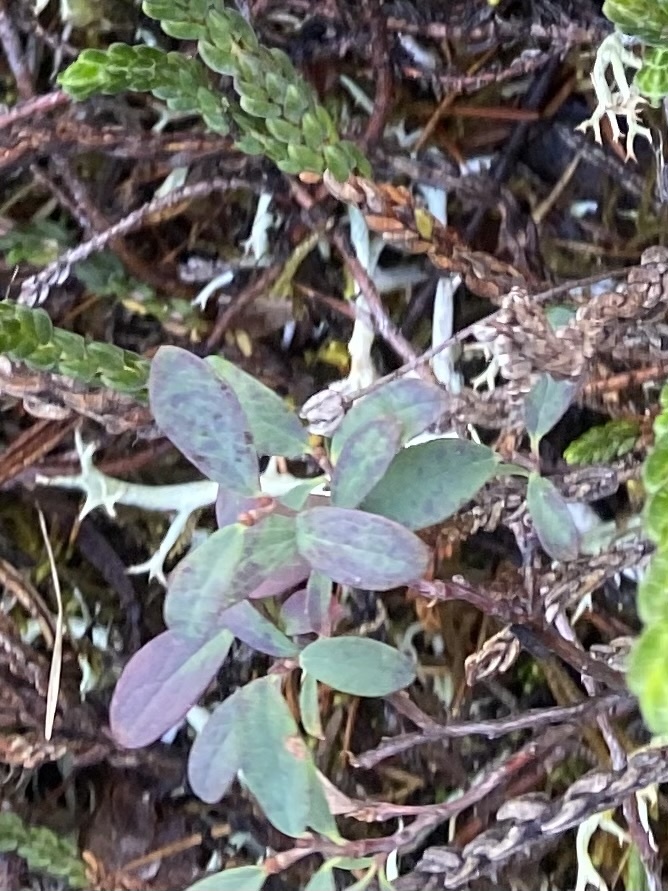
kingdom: Plantae
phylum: Tracheophyta
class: Magnoliopsida
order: Ericales
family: Ericaceae
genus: Vaccinium
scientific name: Vaccinium uliginosum
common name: Bog bilberry
